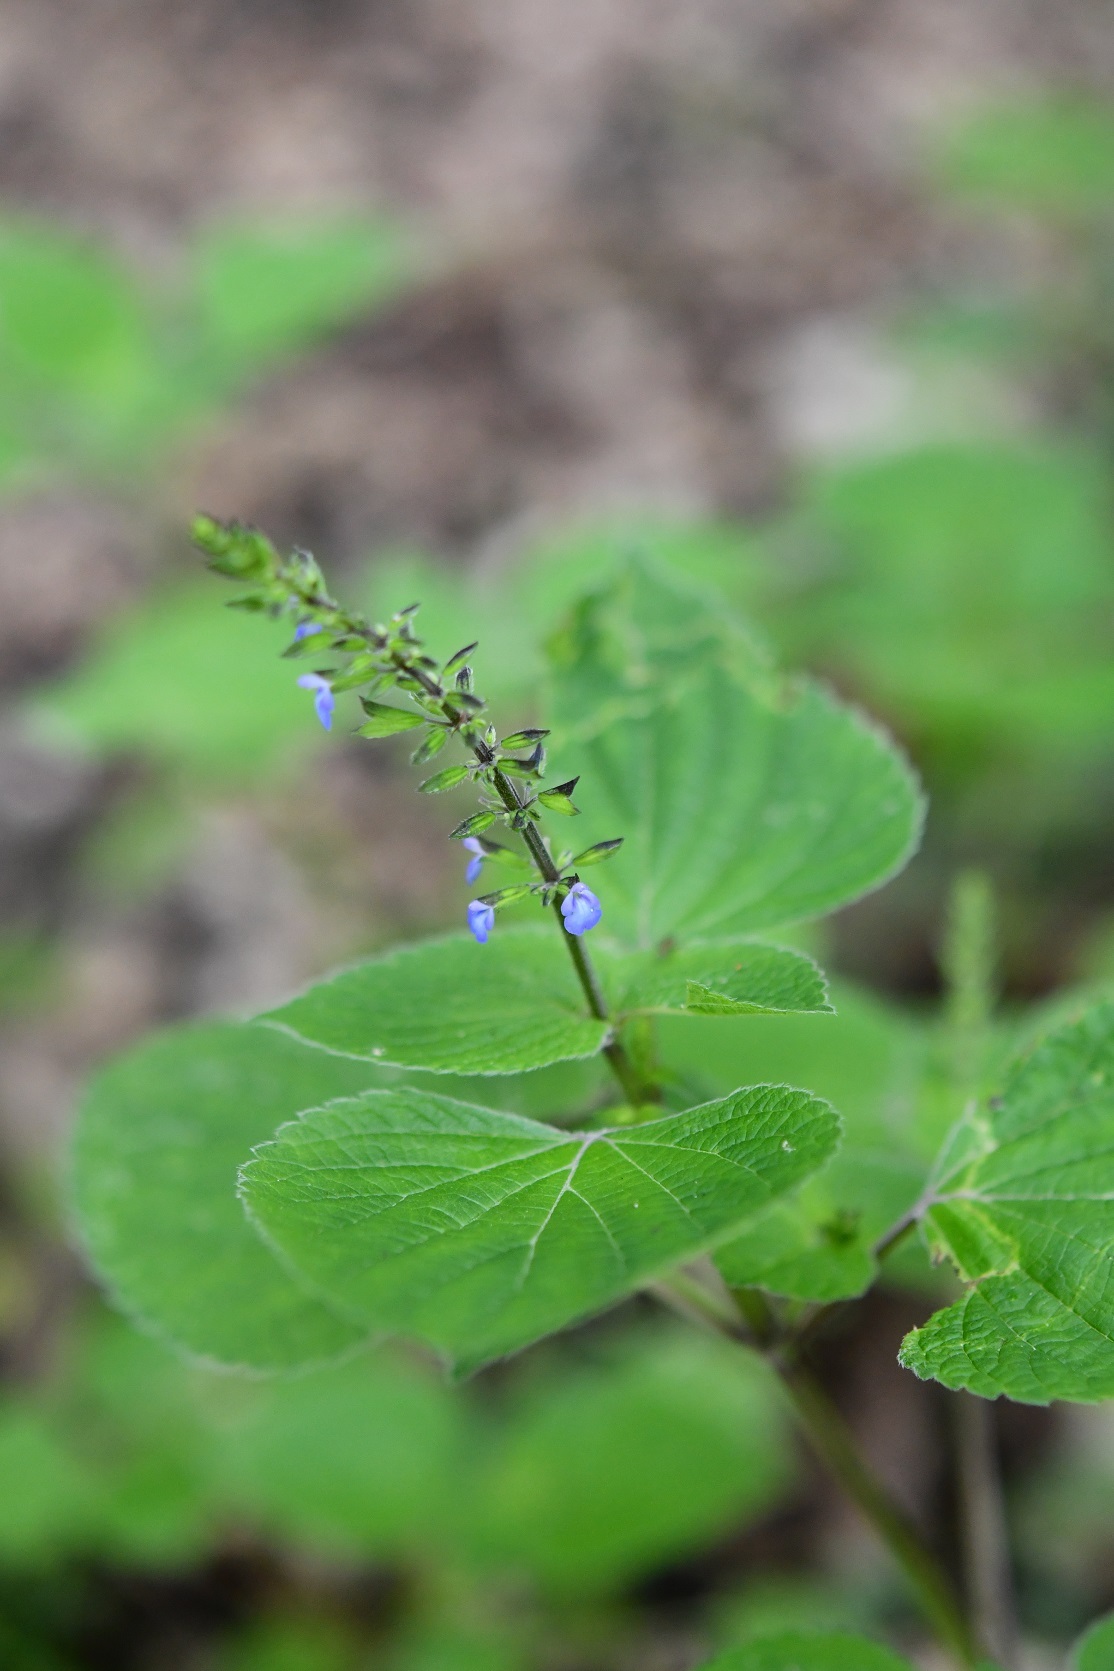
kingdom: Plantae
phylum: Tracheophyta
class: Magnoliopsida
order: Lamiales
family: Lamiaceae
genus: Salvia
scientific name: Salvia tiliifolia
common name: Lindenleaf sage
